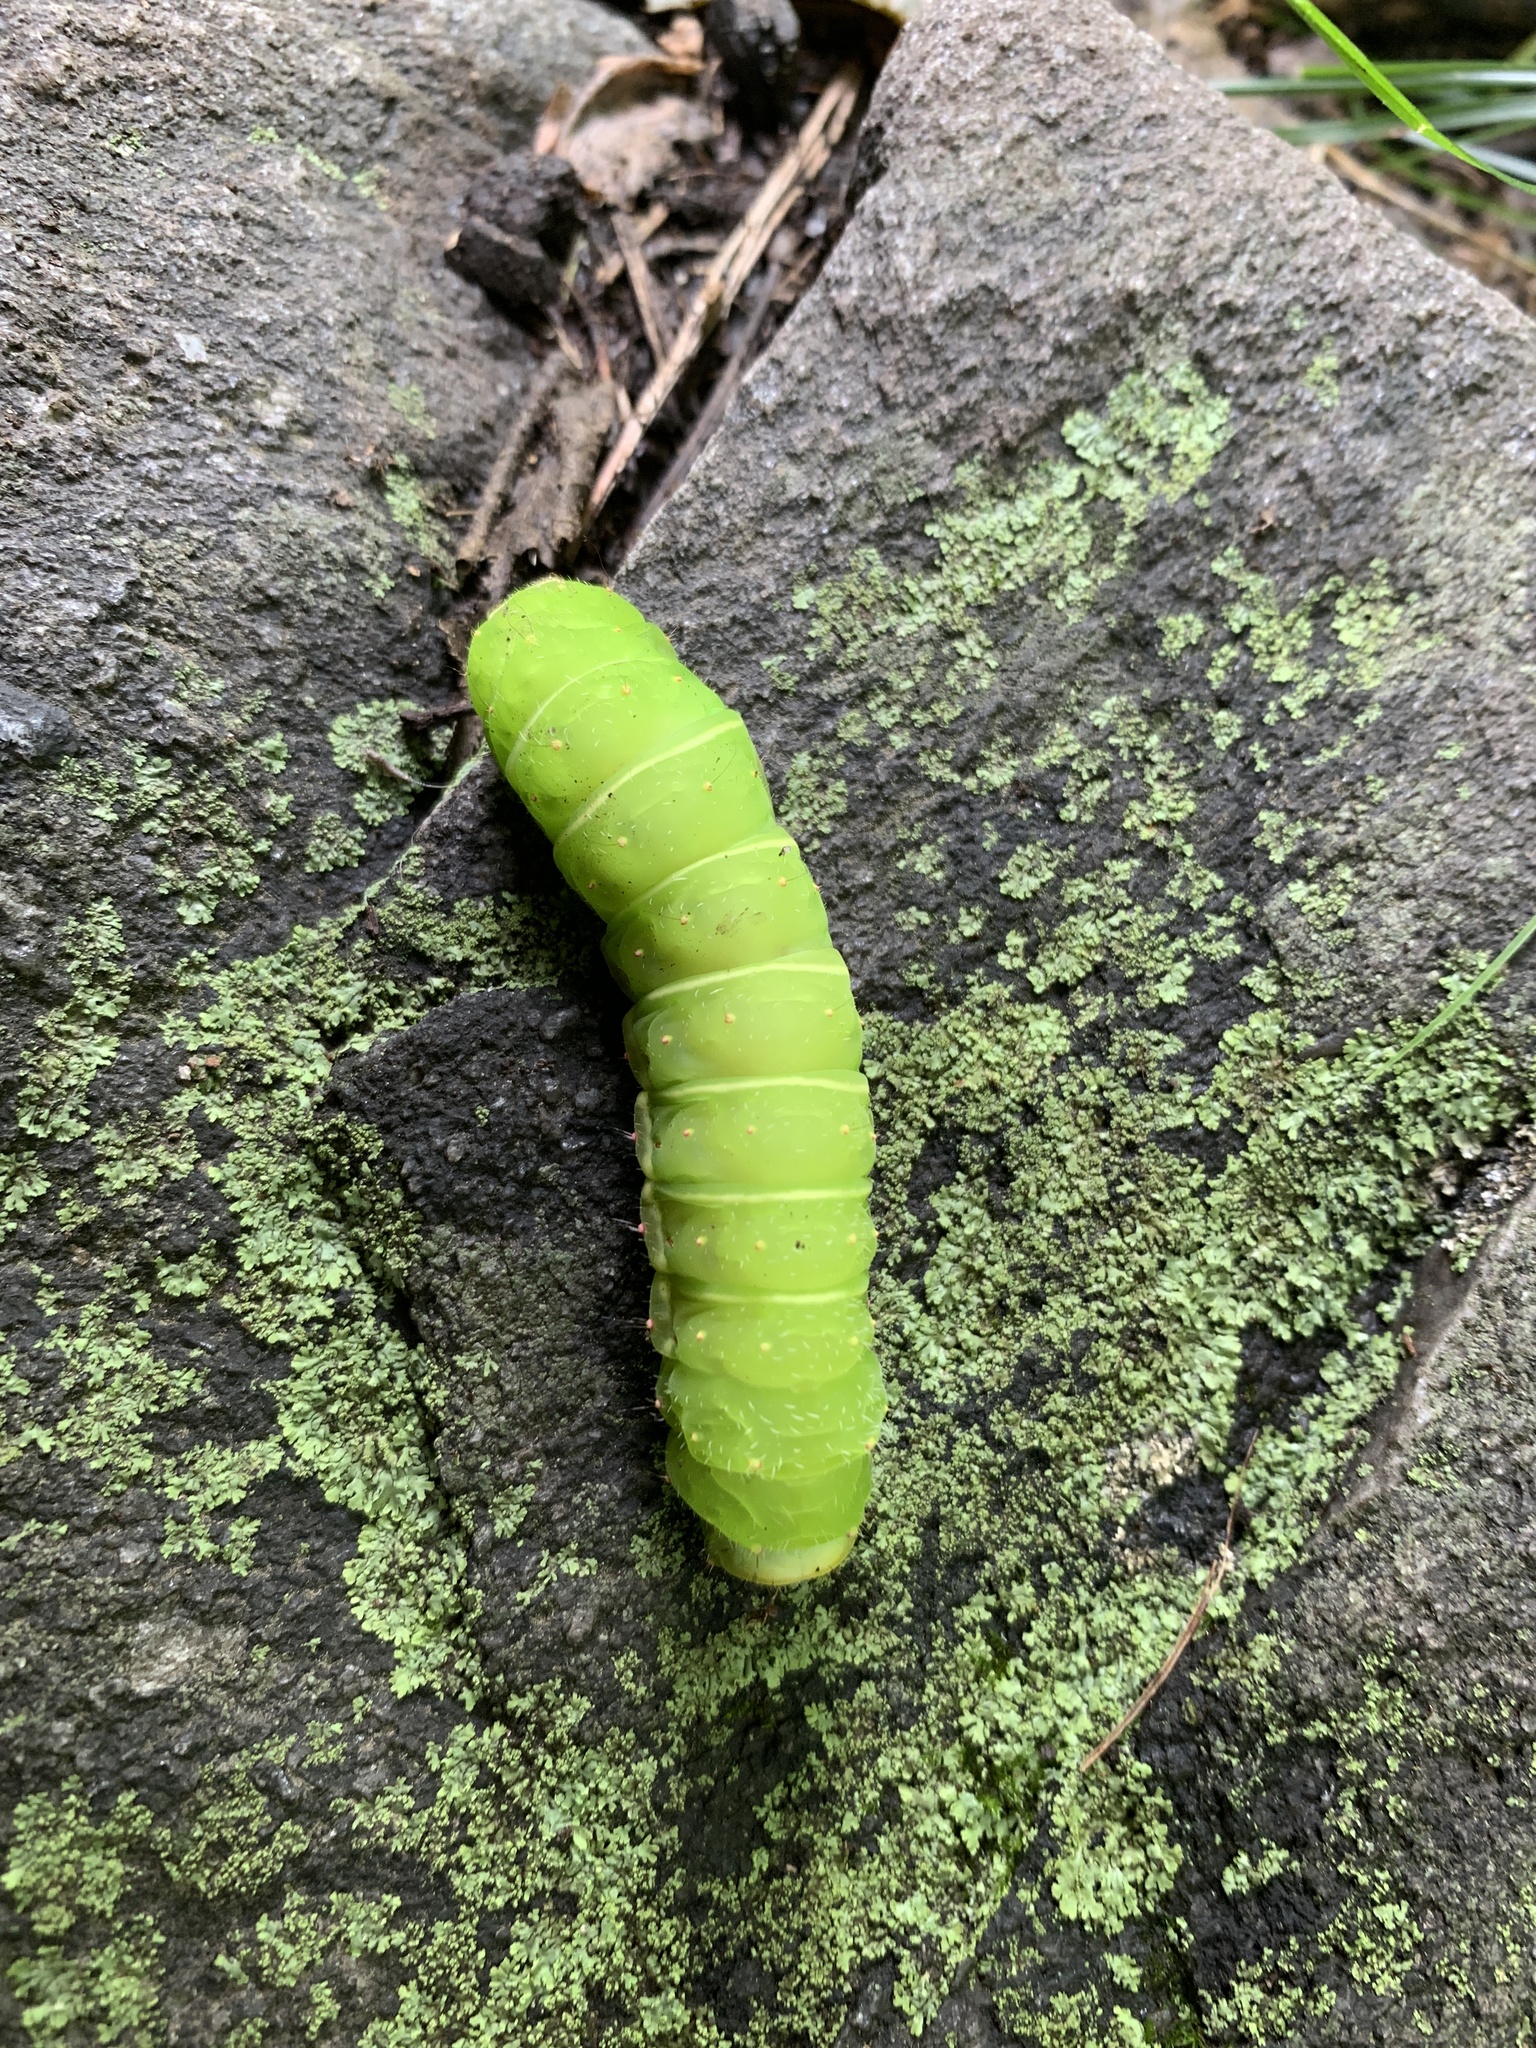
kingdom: Animalia
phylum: Arthropoda
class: Insecta
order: Lepidoptera
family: Saturniidae
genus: Actias
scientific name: Actias luna
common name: Luna moth
